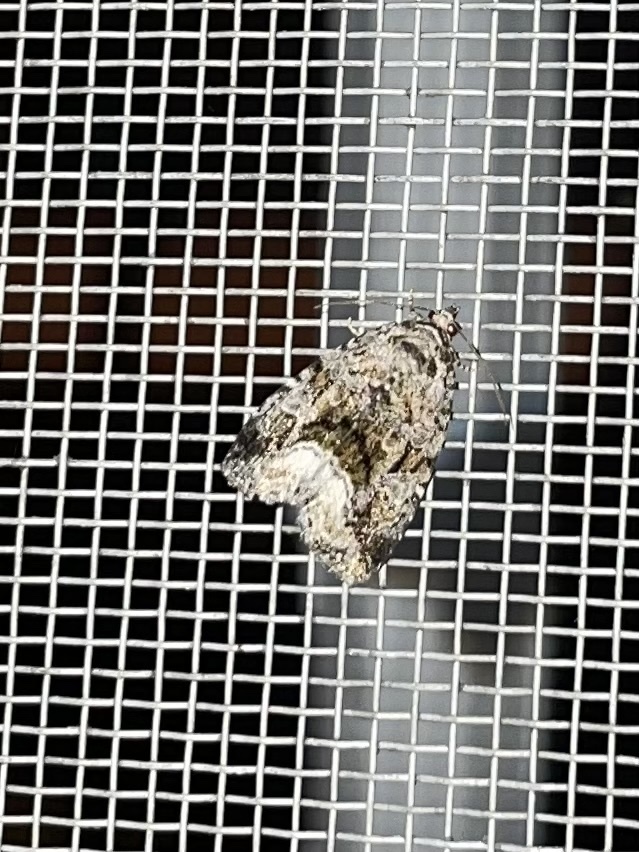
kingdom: Animalia
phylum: Arthropoda
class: Insecta
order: Lepidoptera
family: Noctuidae
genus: Protodeltote
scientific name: Protodeltote muscosula
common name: Large mossy glyph
